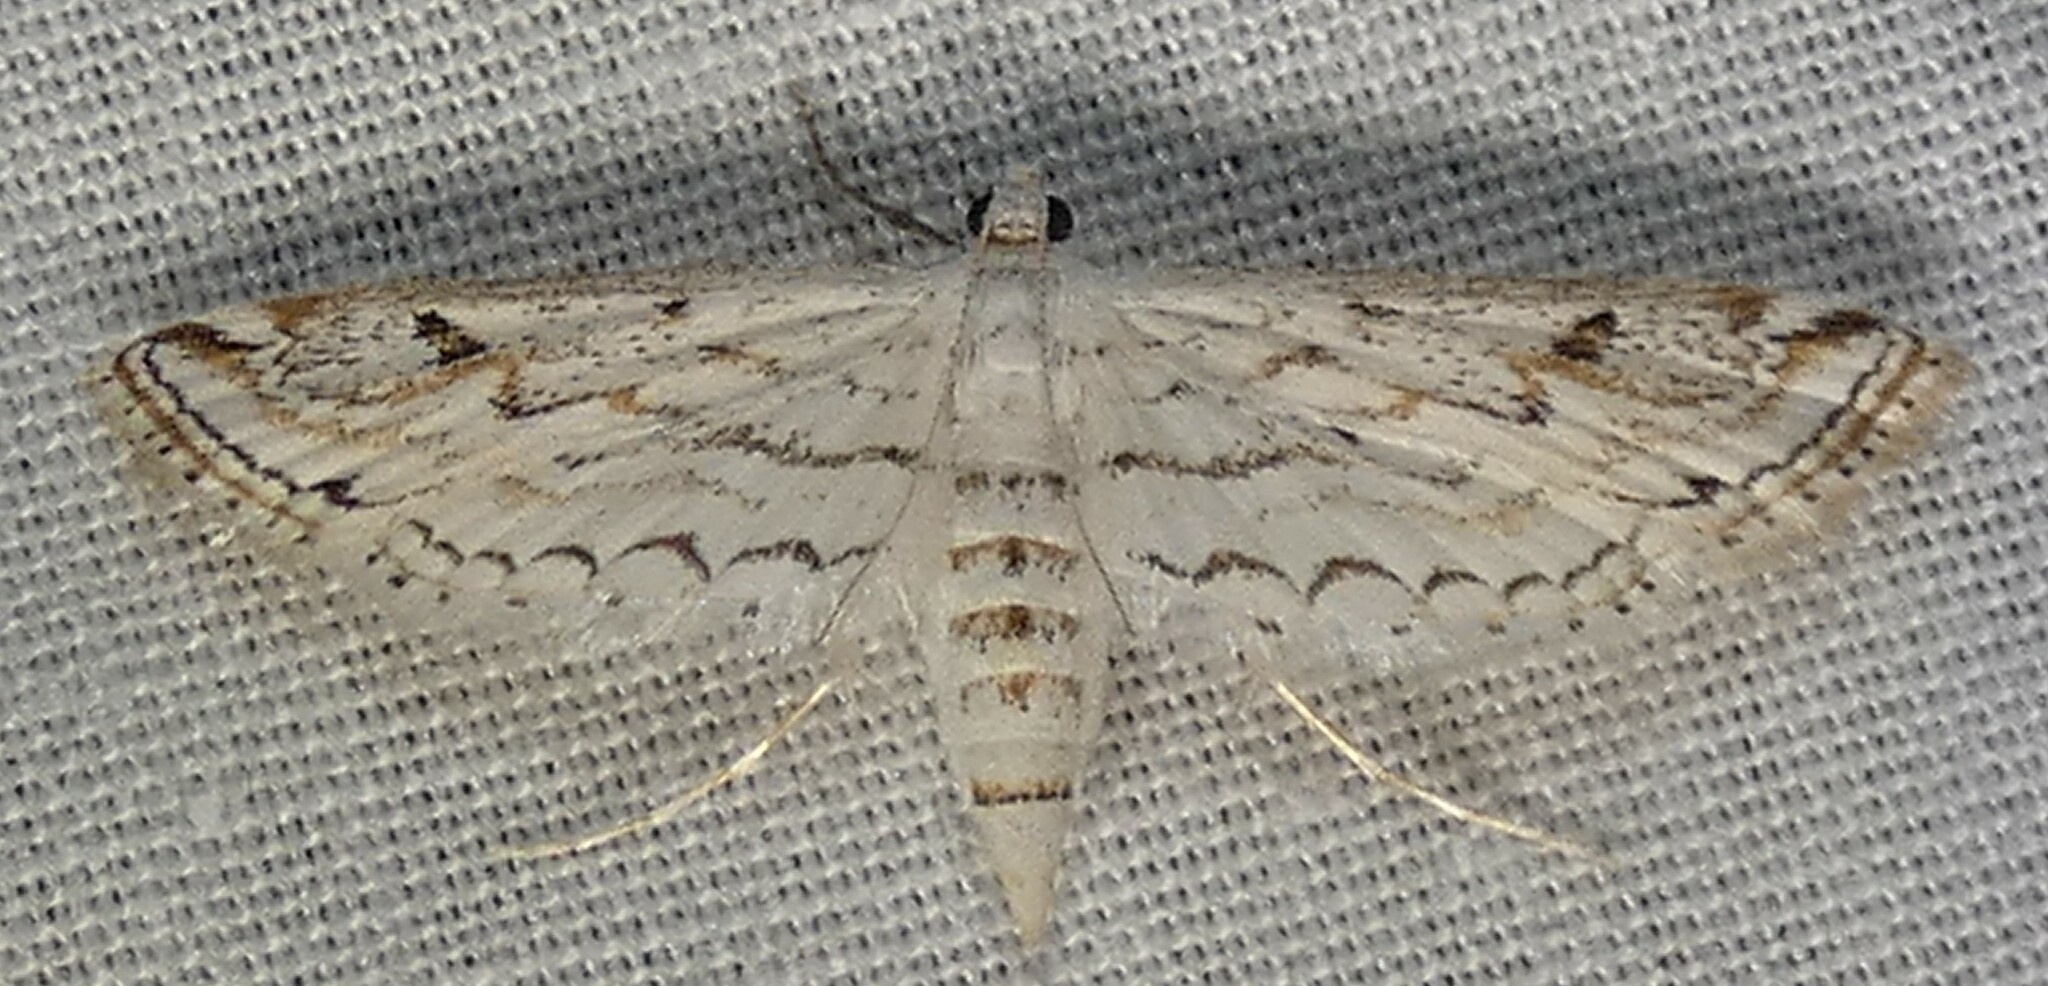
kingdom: Animalia
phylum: Arthropoda
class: Insecta
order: Lepidoptera
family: Crambidae
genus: Parapoynx
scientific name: Parapoynx allionealis
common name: Bladderwort casemaker
